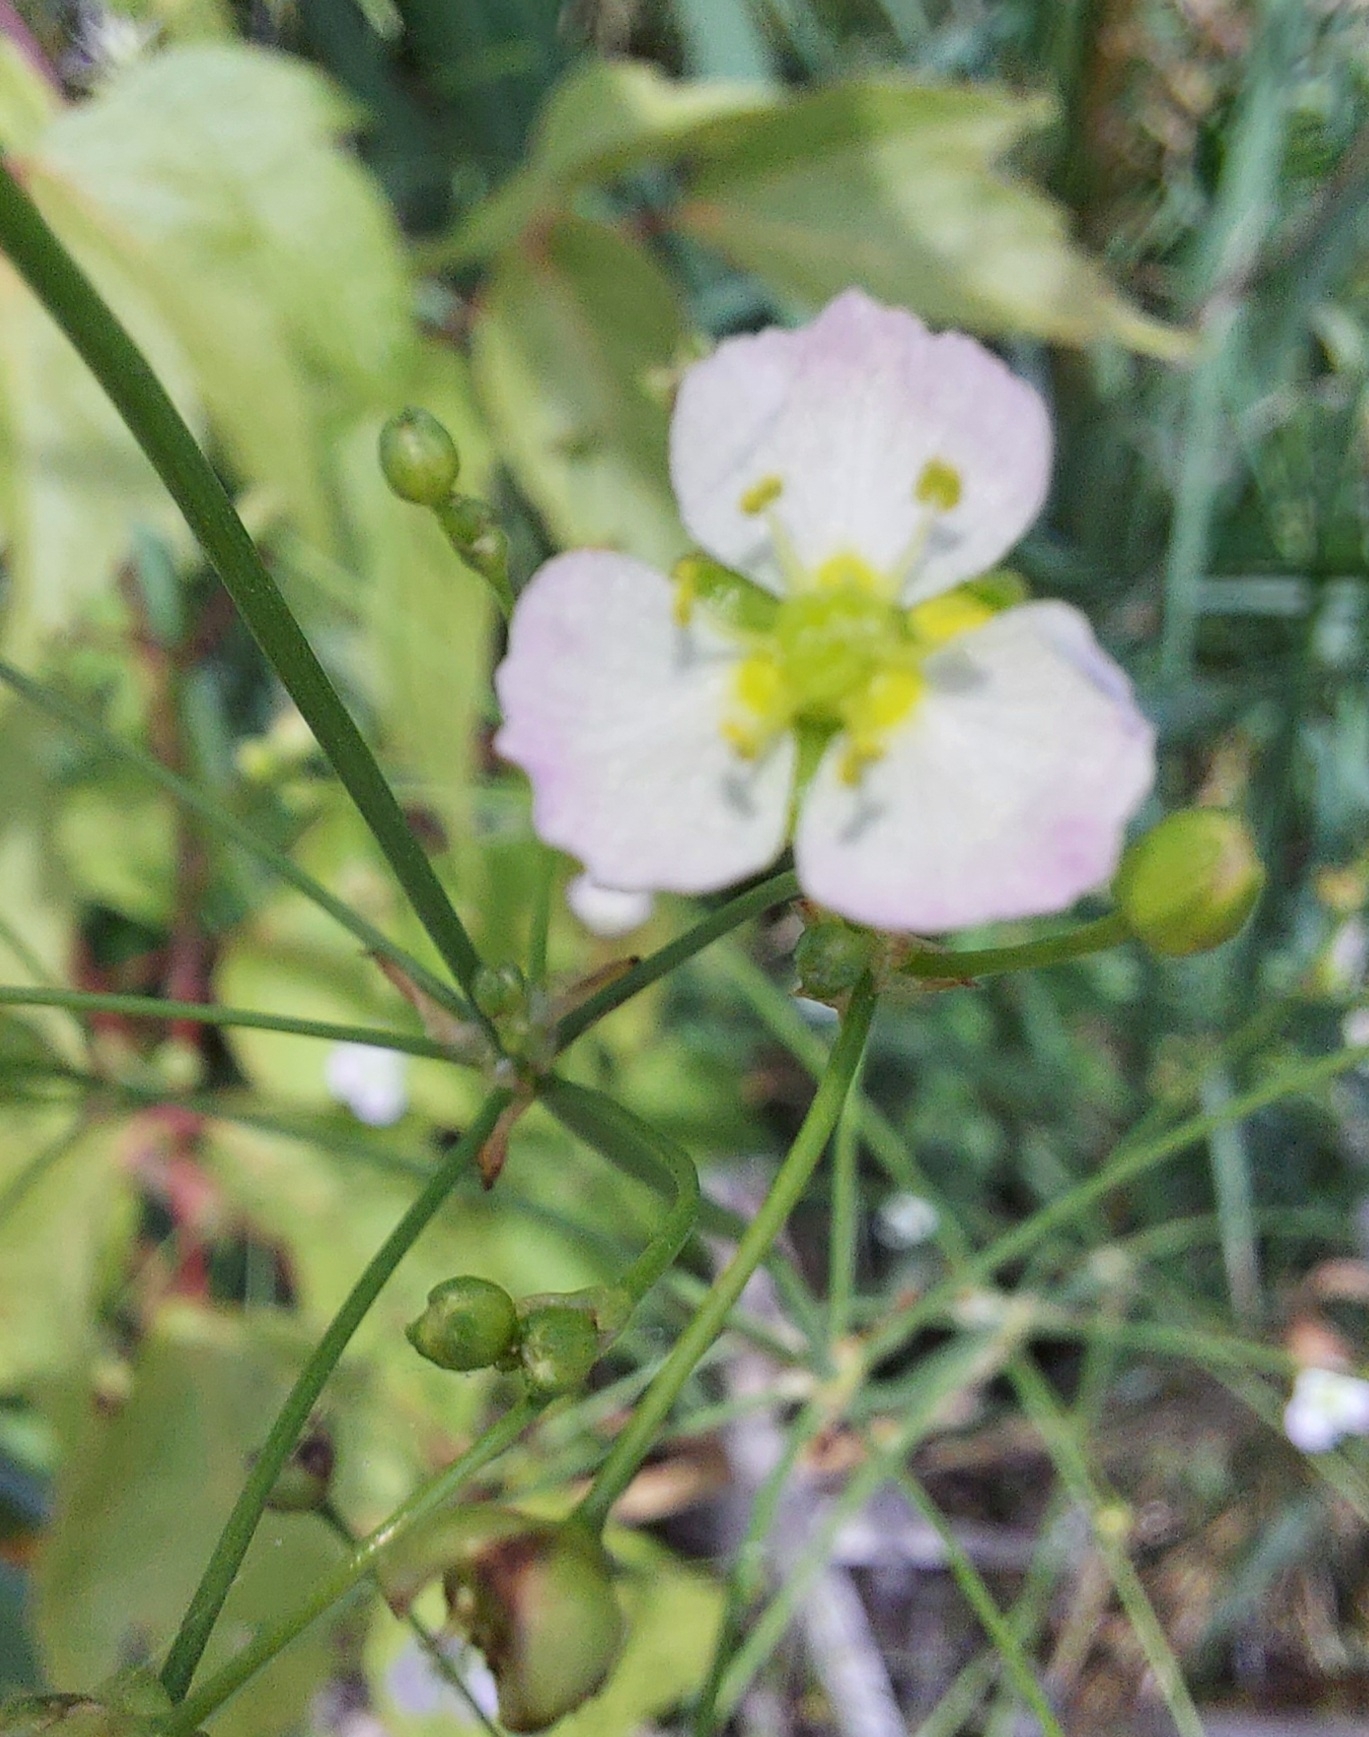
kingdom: Plantae
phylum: Tracheophyta
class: Liliopsida
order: Alismatales
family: Alismataceae
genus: Alisma
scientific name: Alisma plantago-aquatica
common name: Water-plantain
